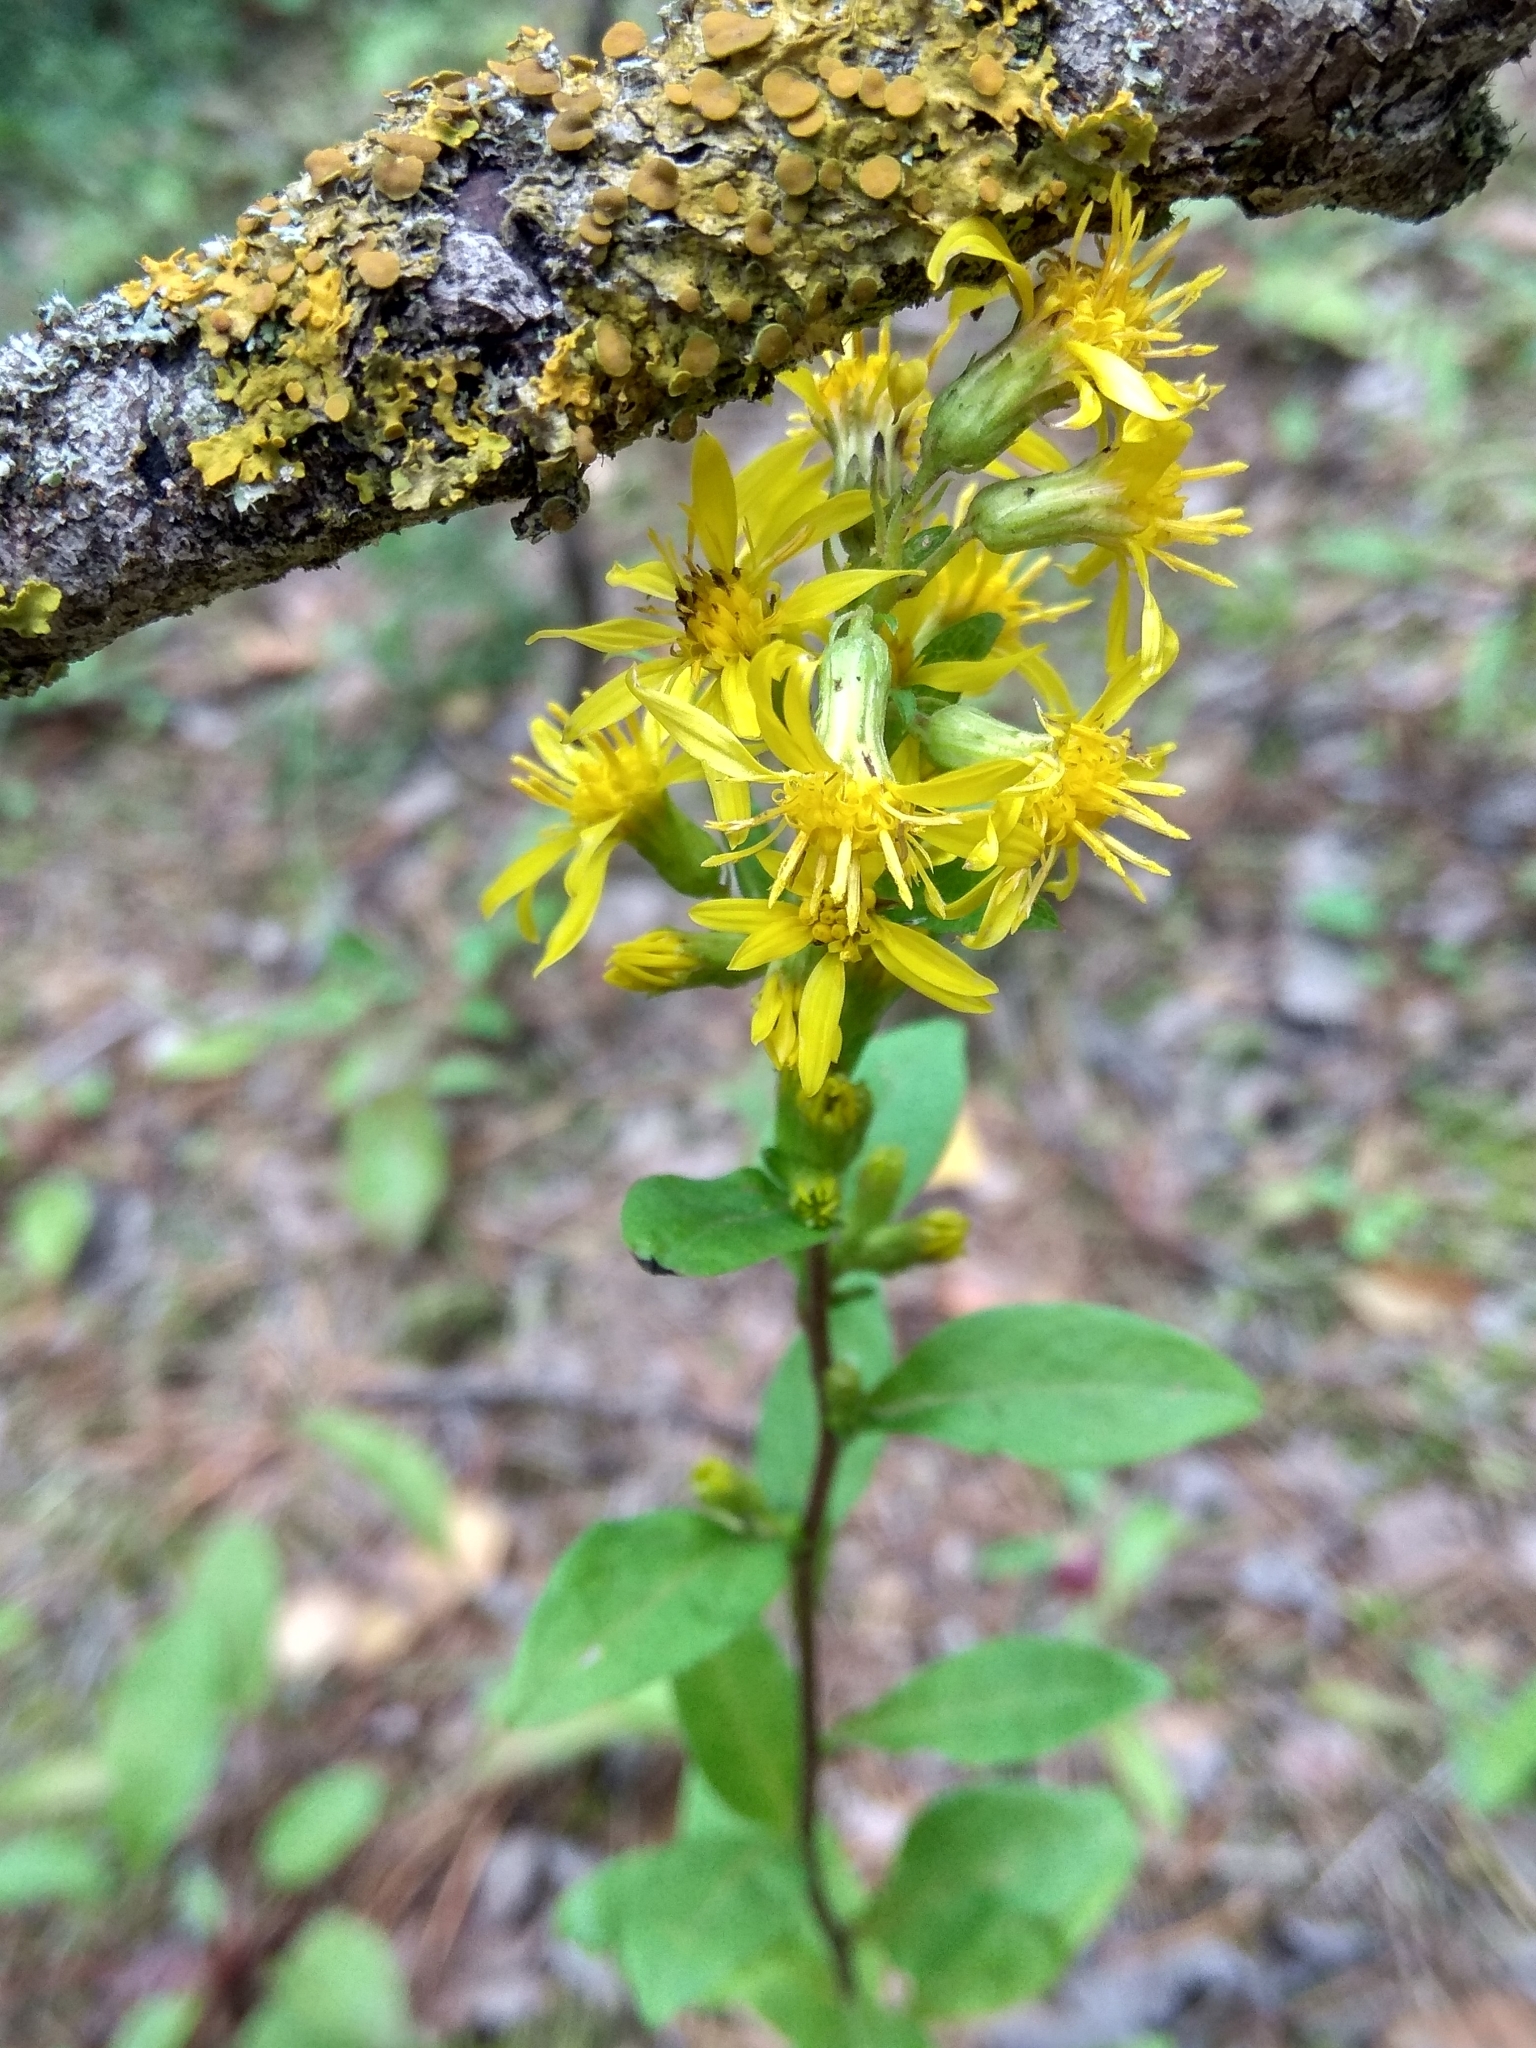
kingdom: Plantae
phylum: Tracheophyta
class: Magnoliopsida
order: Asterales
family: Asteraceae
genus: Solidago
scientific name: Solidago virgaurea
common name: Goldenrod
